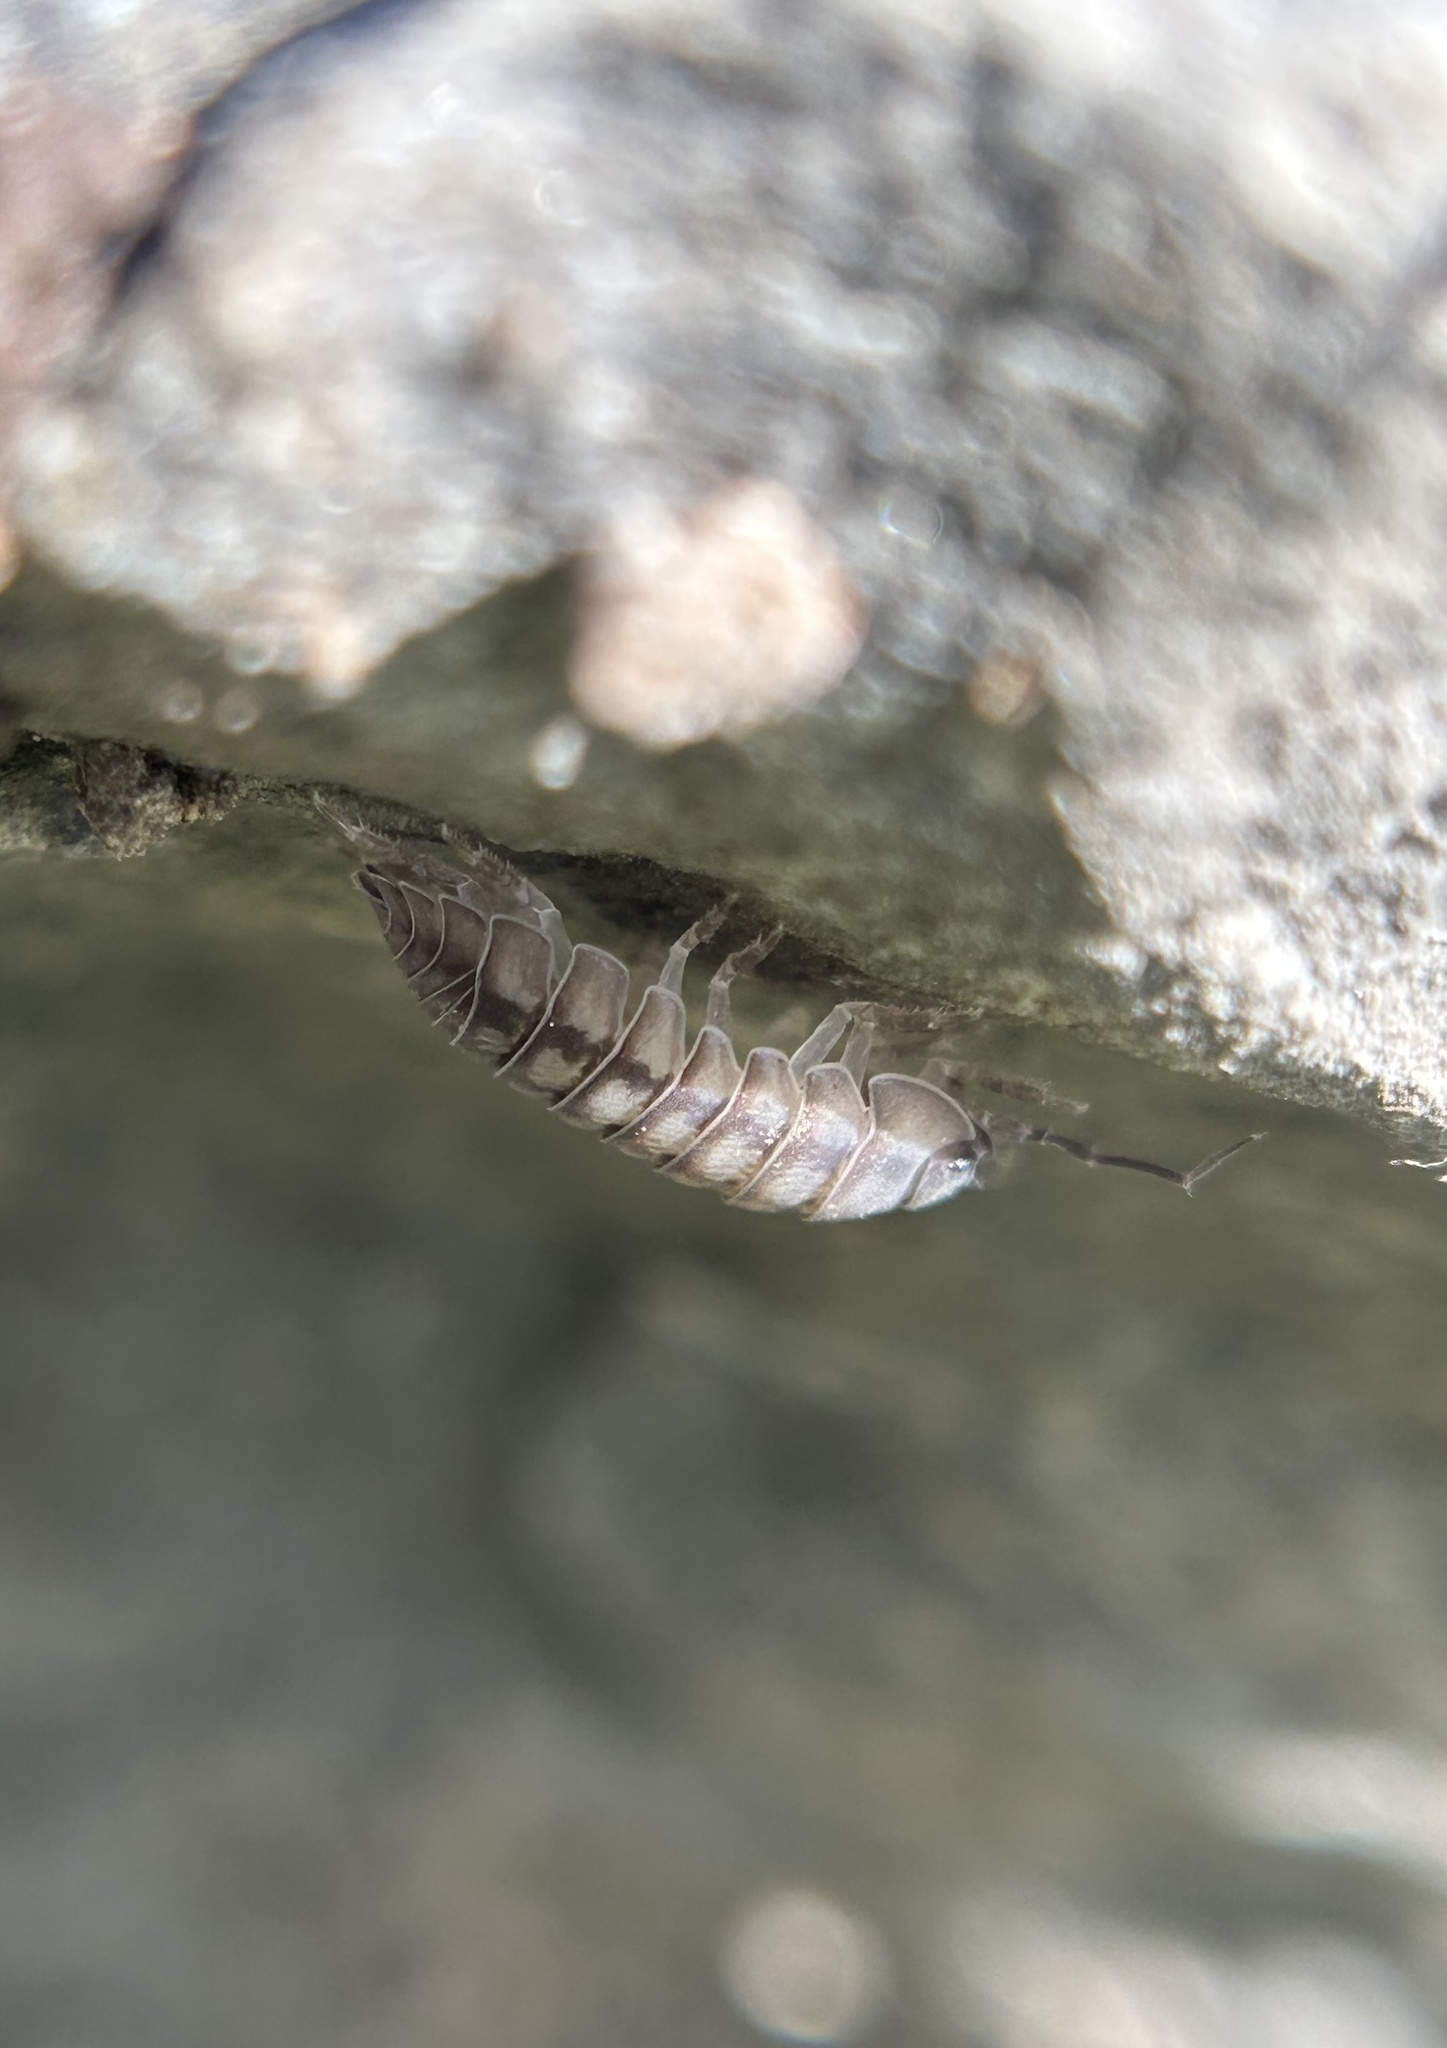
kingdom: Animalia
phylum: Arthropoda
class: Malacostraca
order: Isopoda
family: Armadillidiidae
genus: Armadillidium
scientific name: Armadillidium nasatum
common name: Isopod
